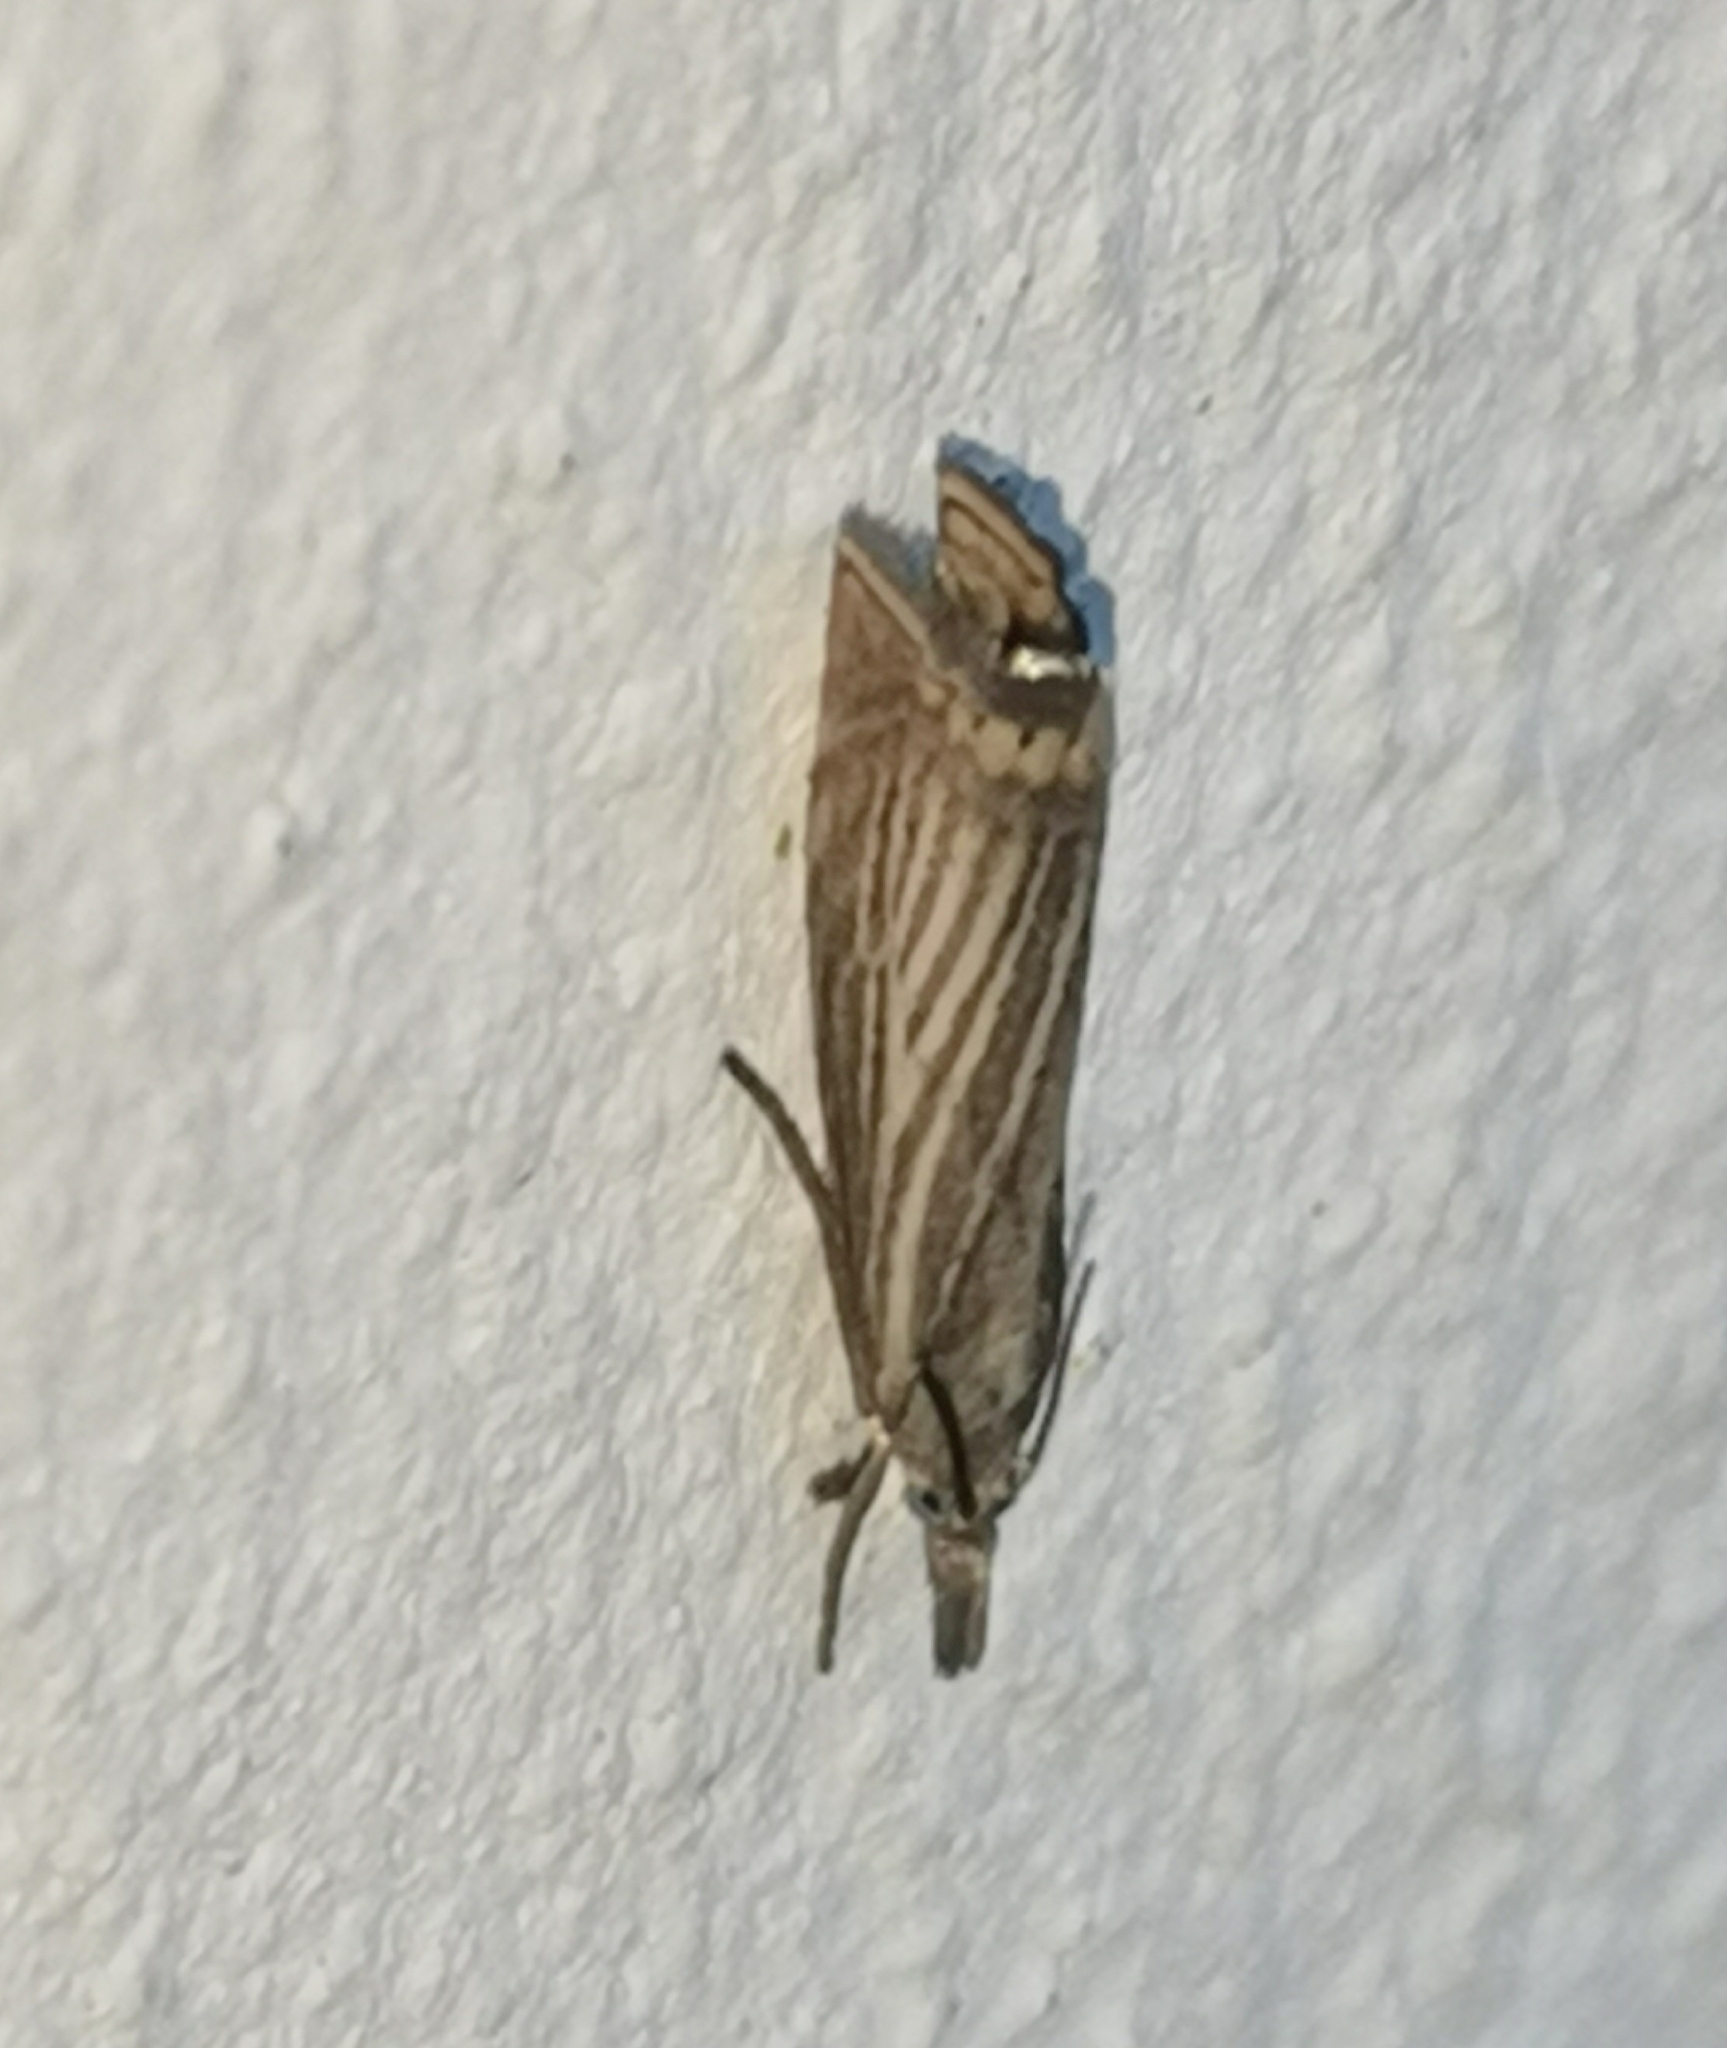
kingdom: Animalia
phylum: Arthropoda
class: Insecta
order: Lepidoptera
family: Crambidae
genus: Chrysoteuchia
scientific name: Chrysoteuchia culmella
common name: Garden grass-veneer
